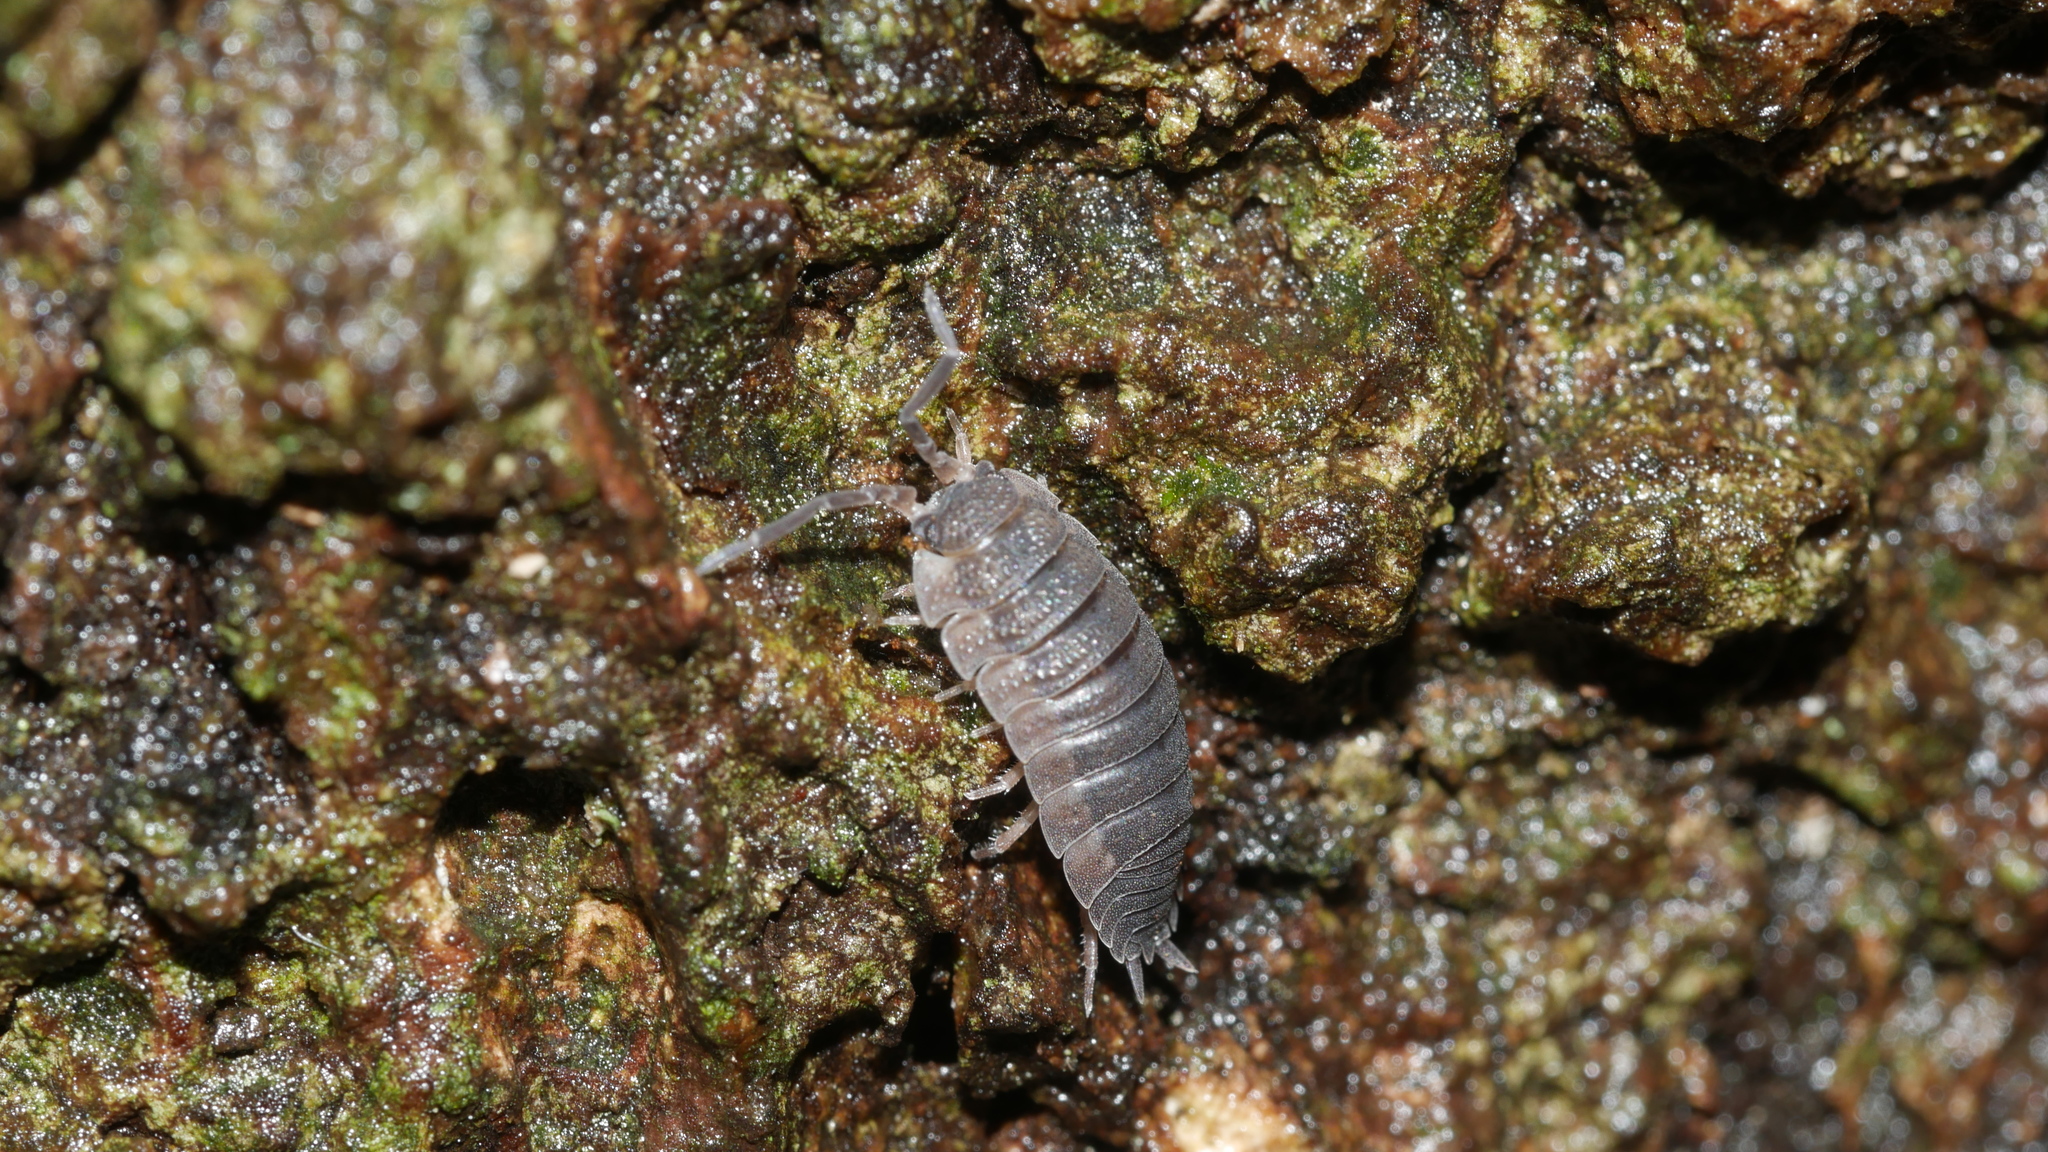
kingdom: Animalia
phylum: Arthropoda
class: Malacostraca
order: Isopoda
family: Porcellionidae
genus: Porcellio
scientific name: Porcellio scaber
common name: Common rough woodlouse
